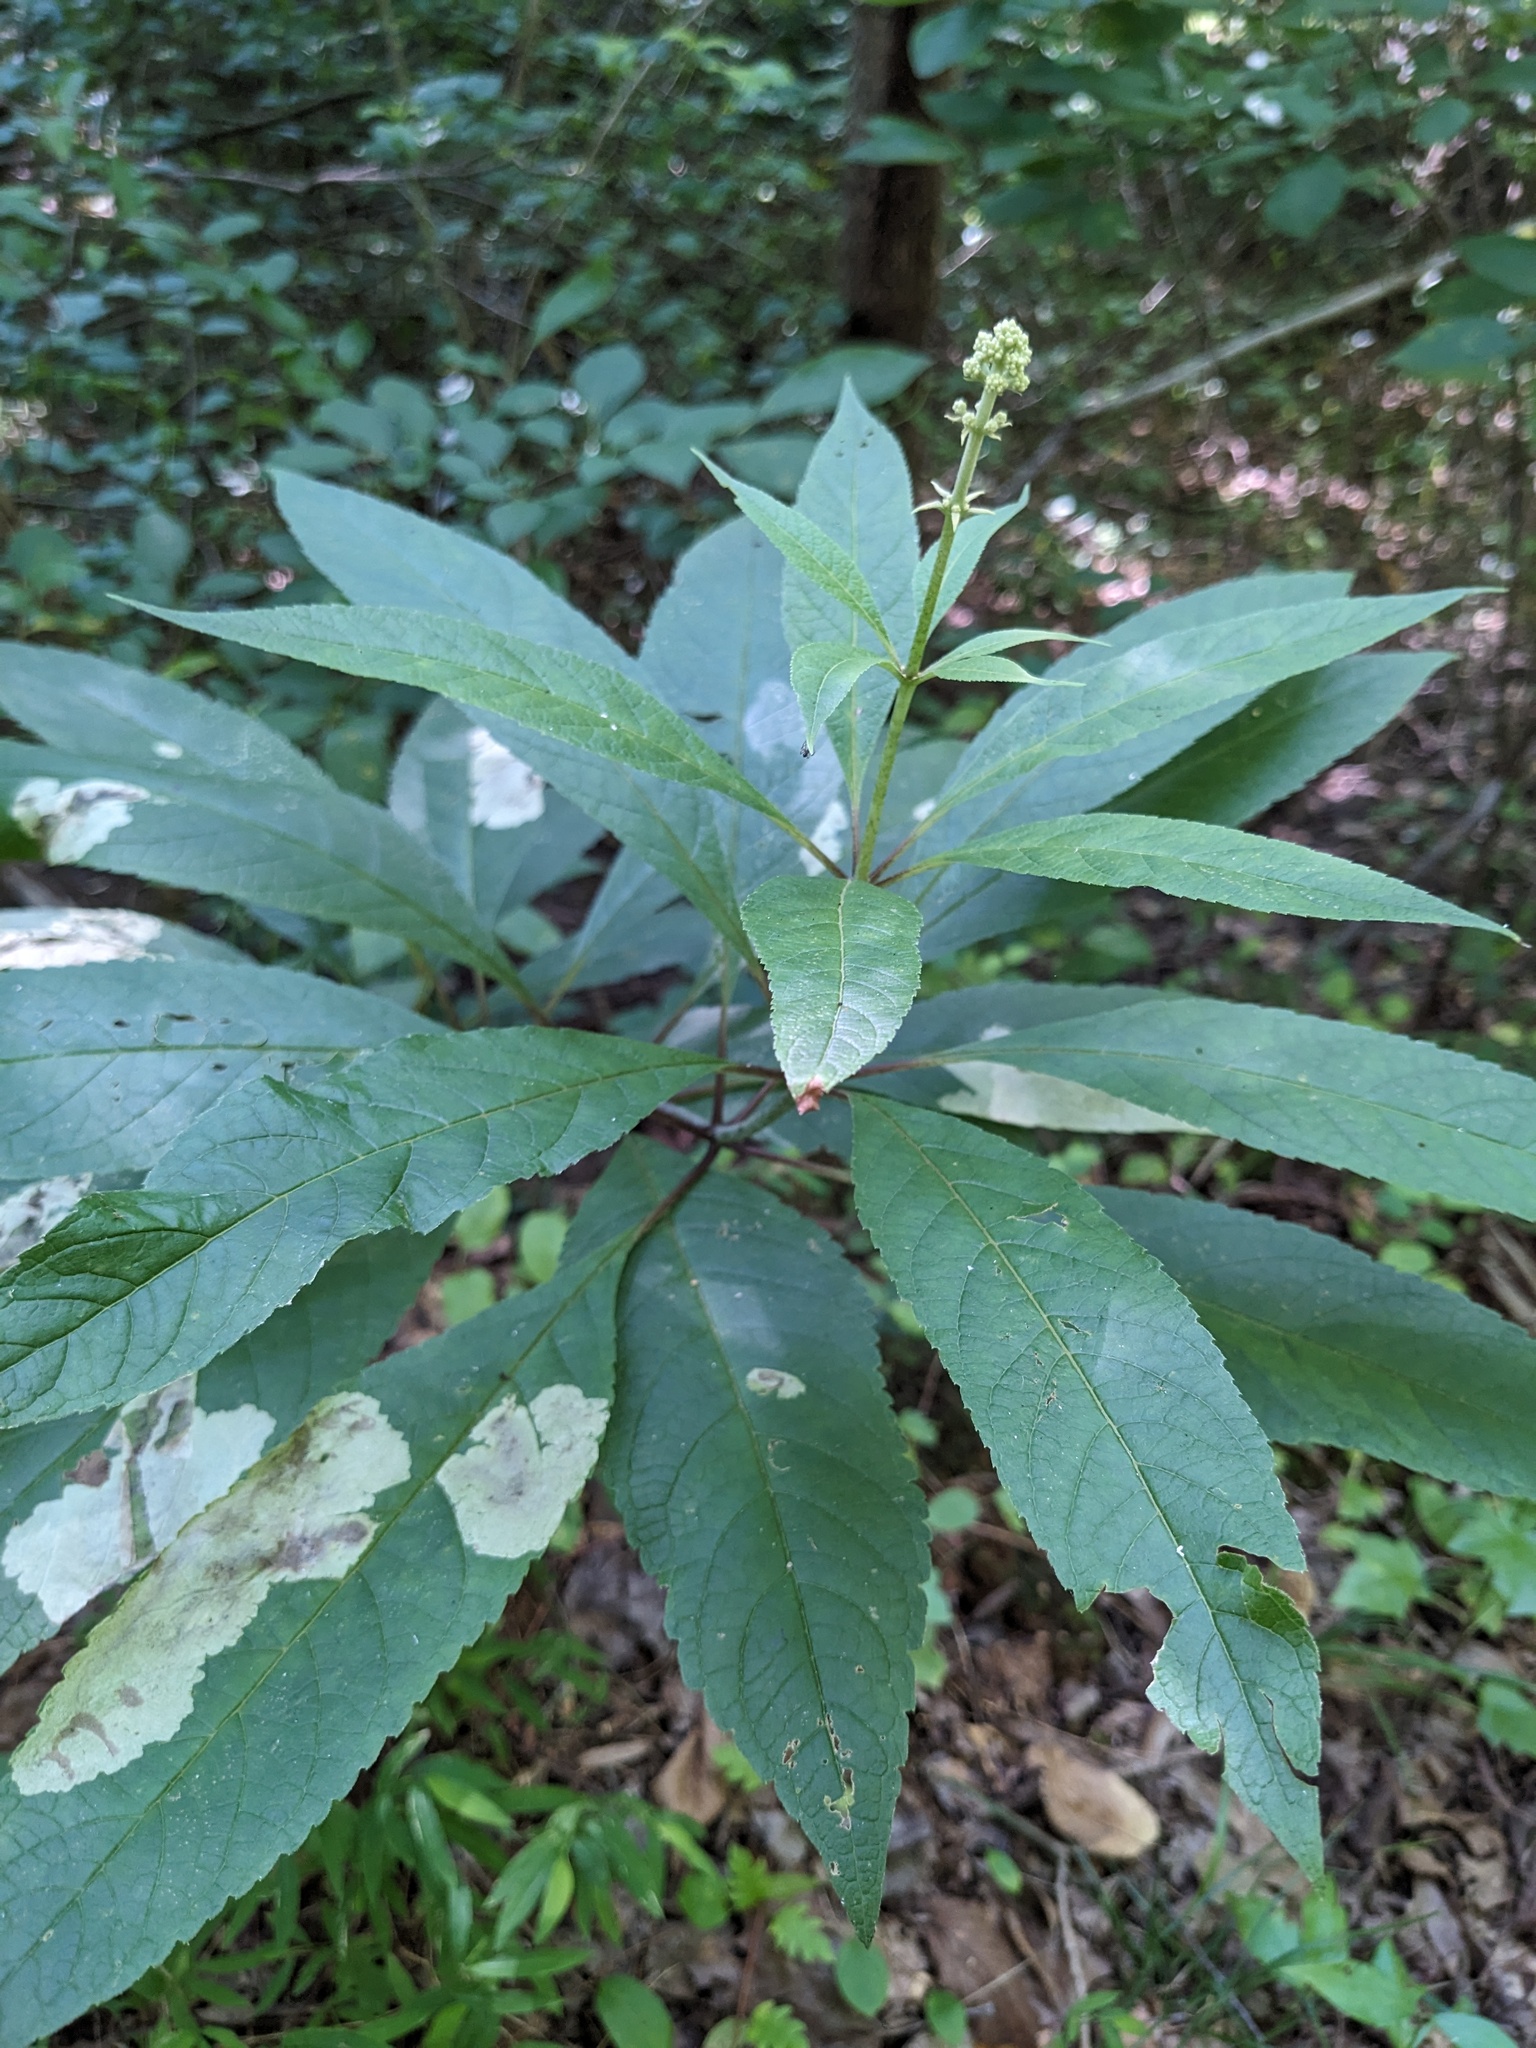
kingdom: Plantae
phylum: Tracheophyta
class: Magnoliopsida
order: Asterales
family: Asteraceae
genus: Eutrochium
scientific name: Eutrochium fistulosum
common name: Trumpetweed
